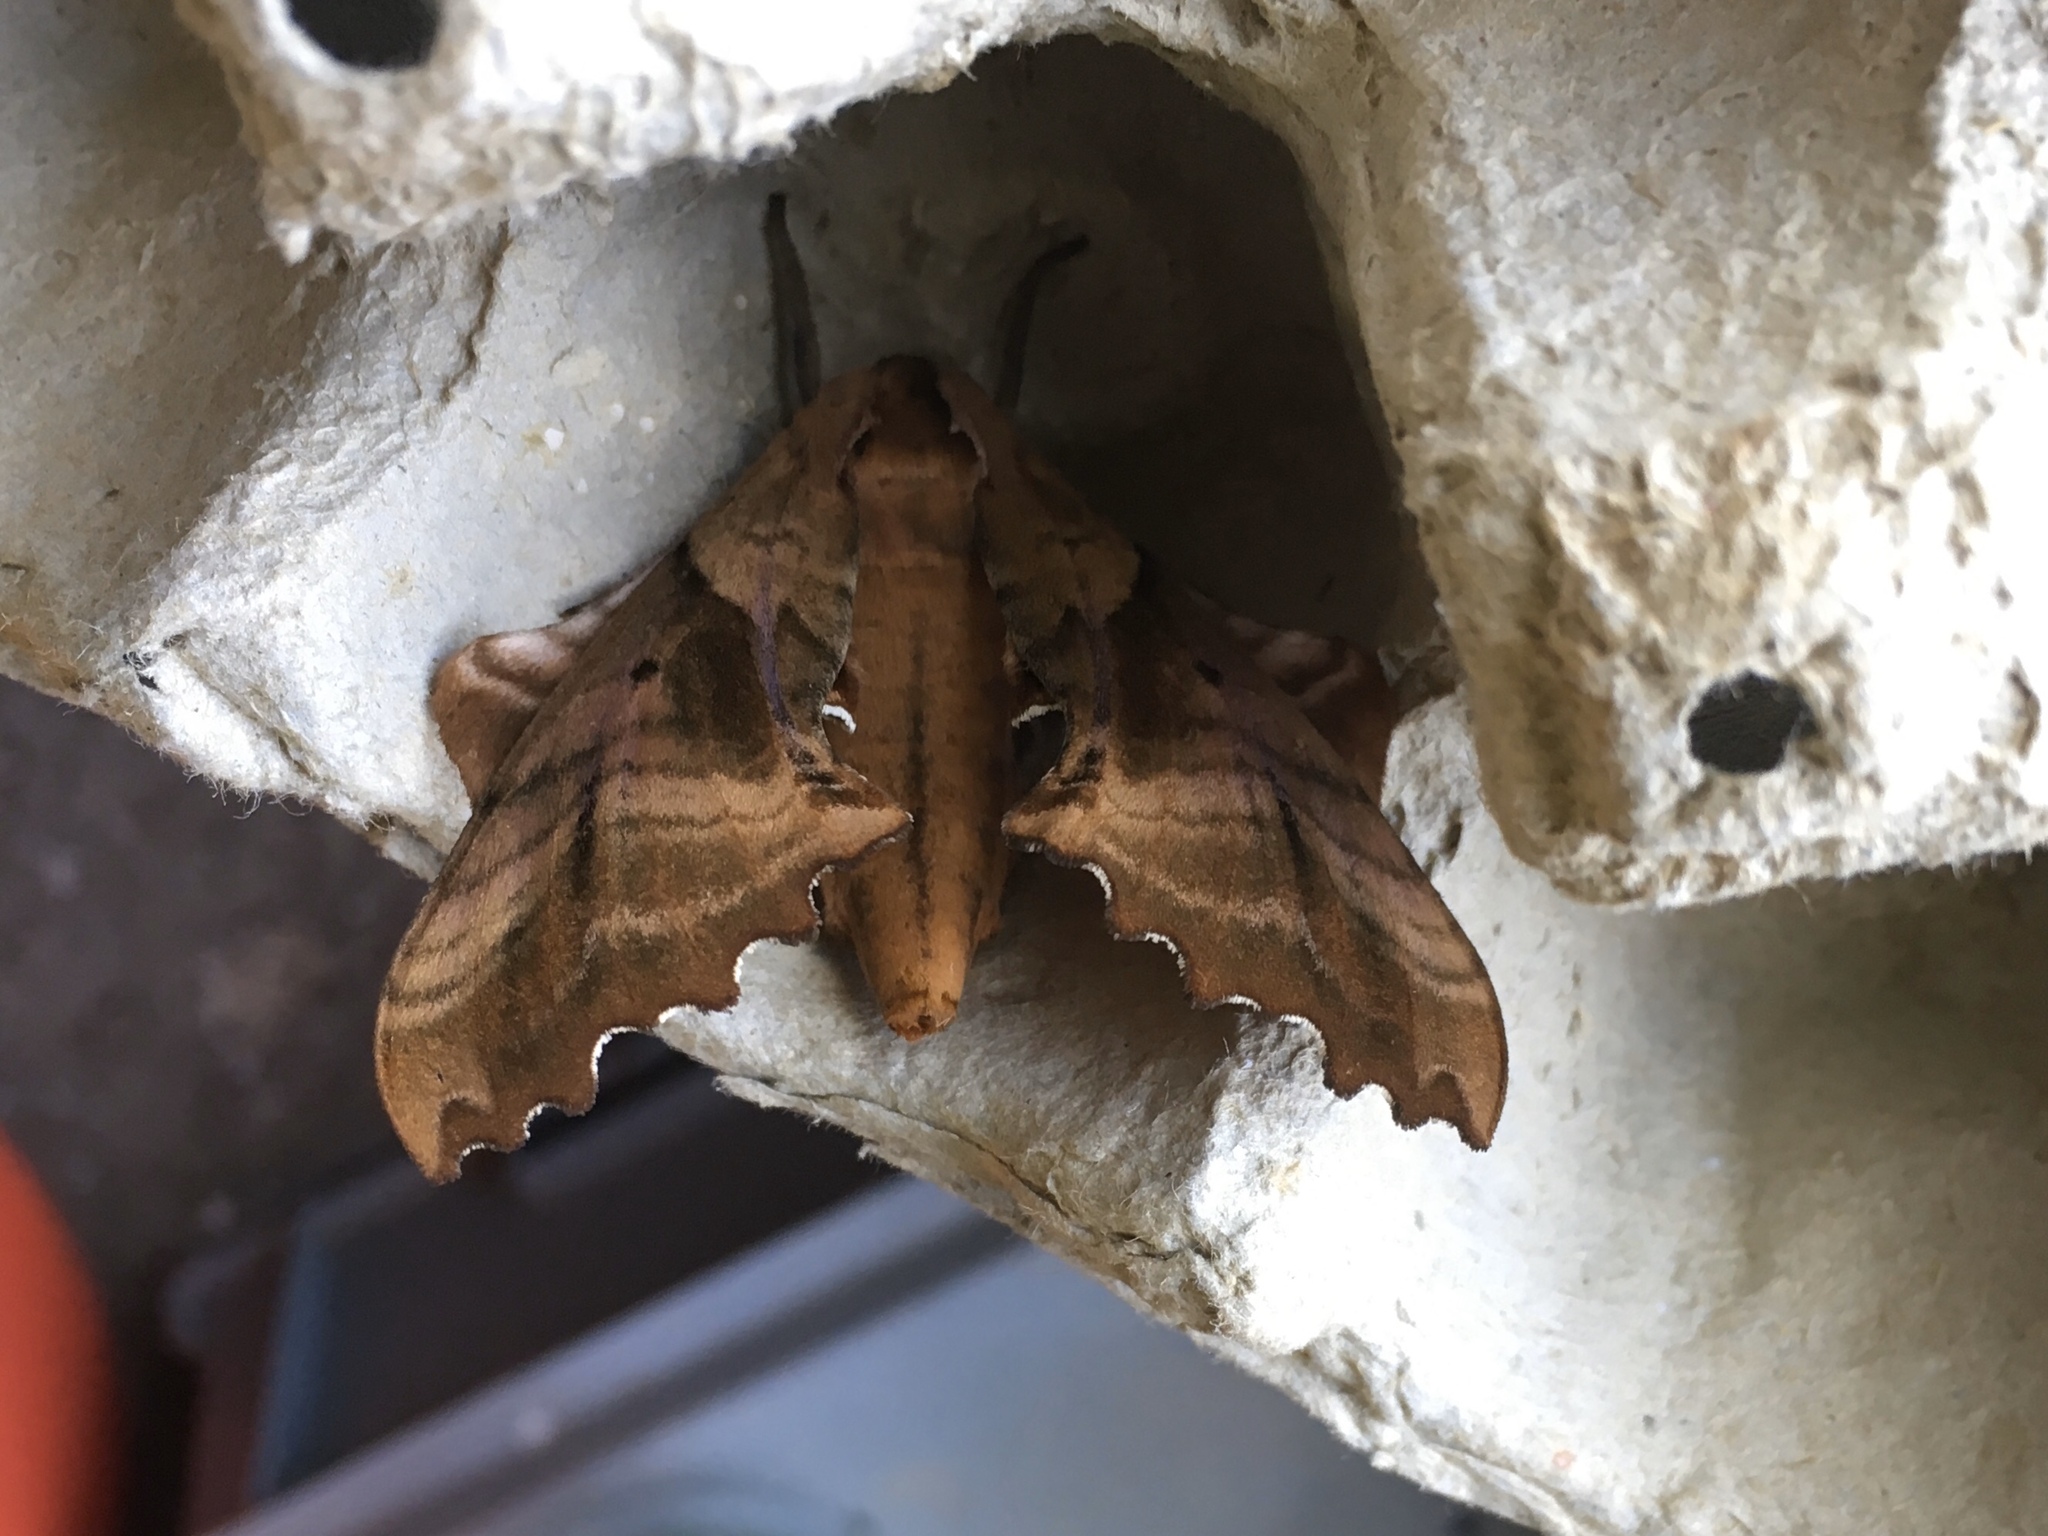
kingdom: Animalia
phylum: Arthropoda
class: Insecta
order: Lepidoptera
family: Sphingidae
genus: Paonias
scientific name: Paonias excaecata
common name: Blind-eyed sphinx
